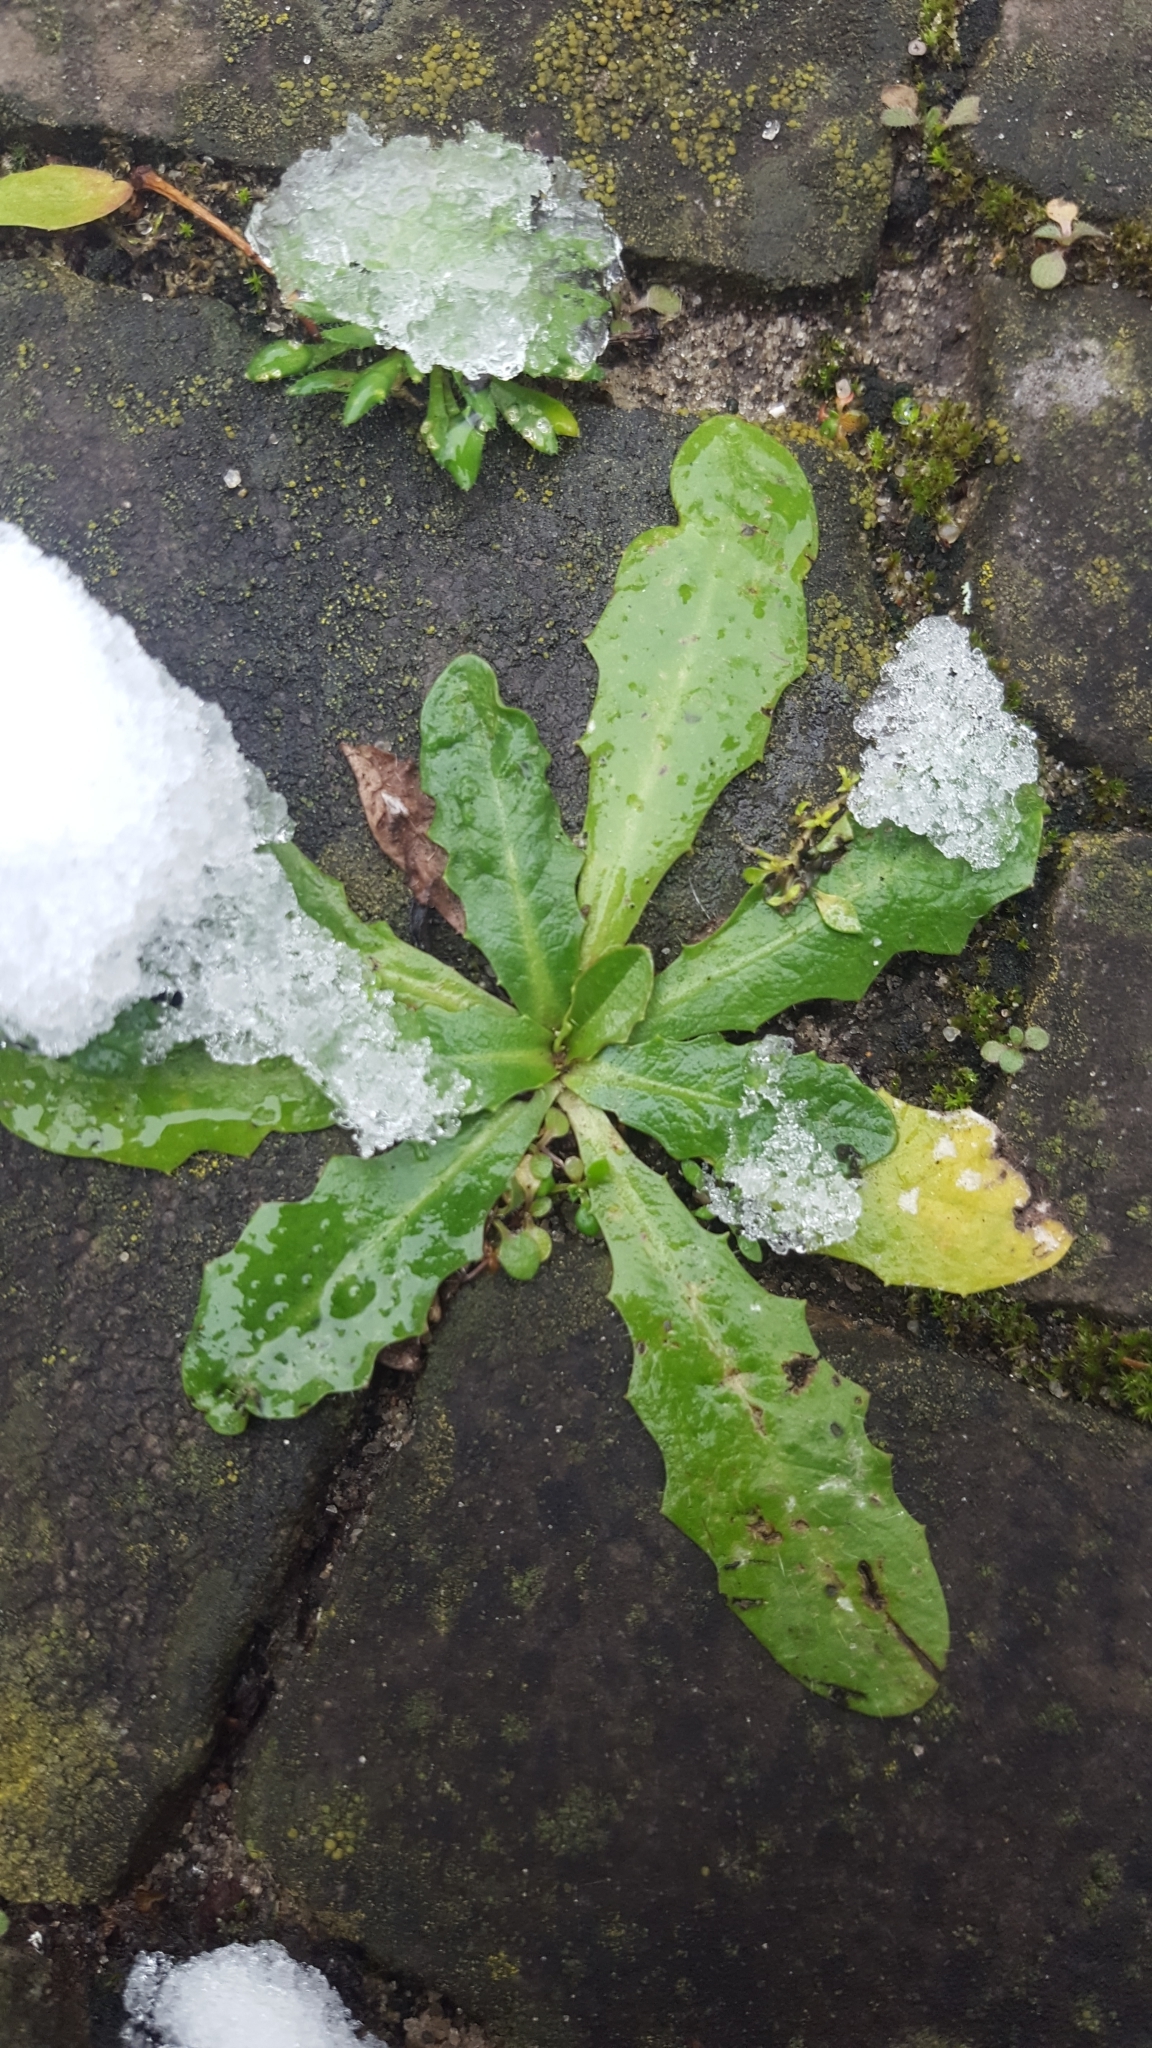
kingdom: Plantae
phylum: Tracheophyta
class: Magnoliopsida
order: Asterales
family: Asteraceae
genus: Hypochaeris
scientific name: Hypochaeris radicata
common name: Flatweed
